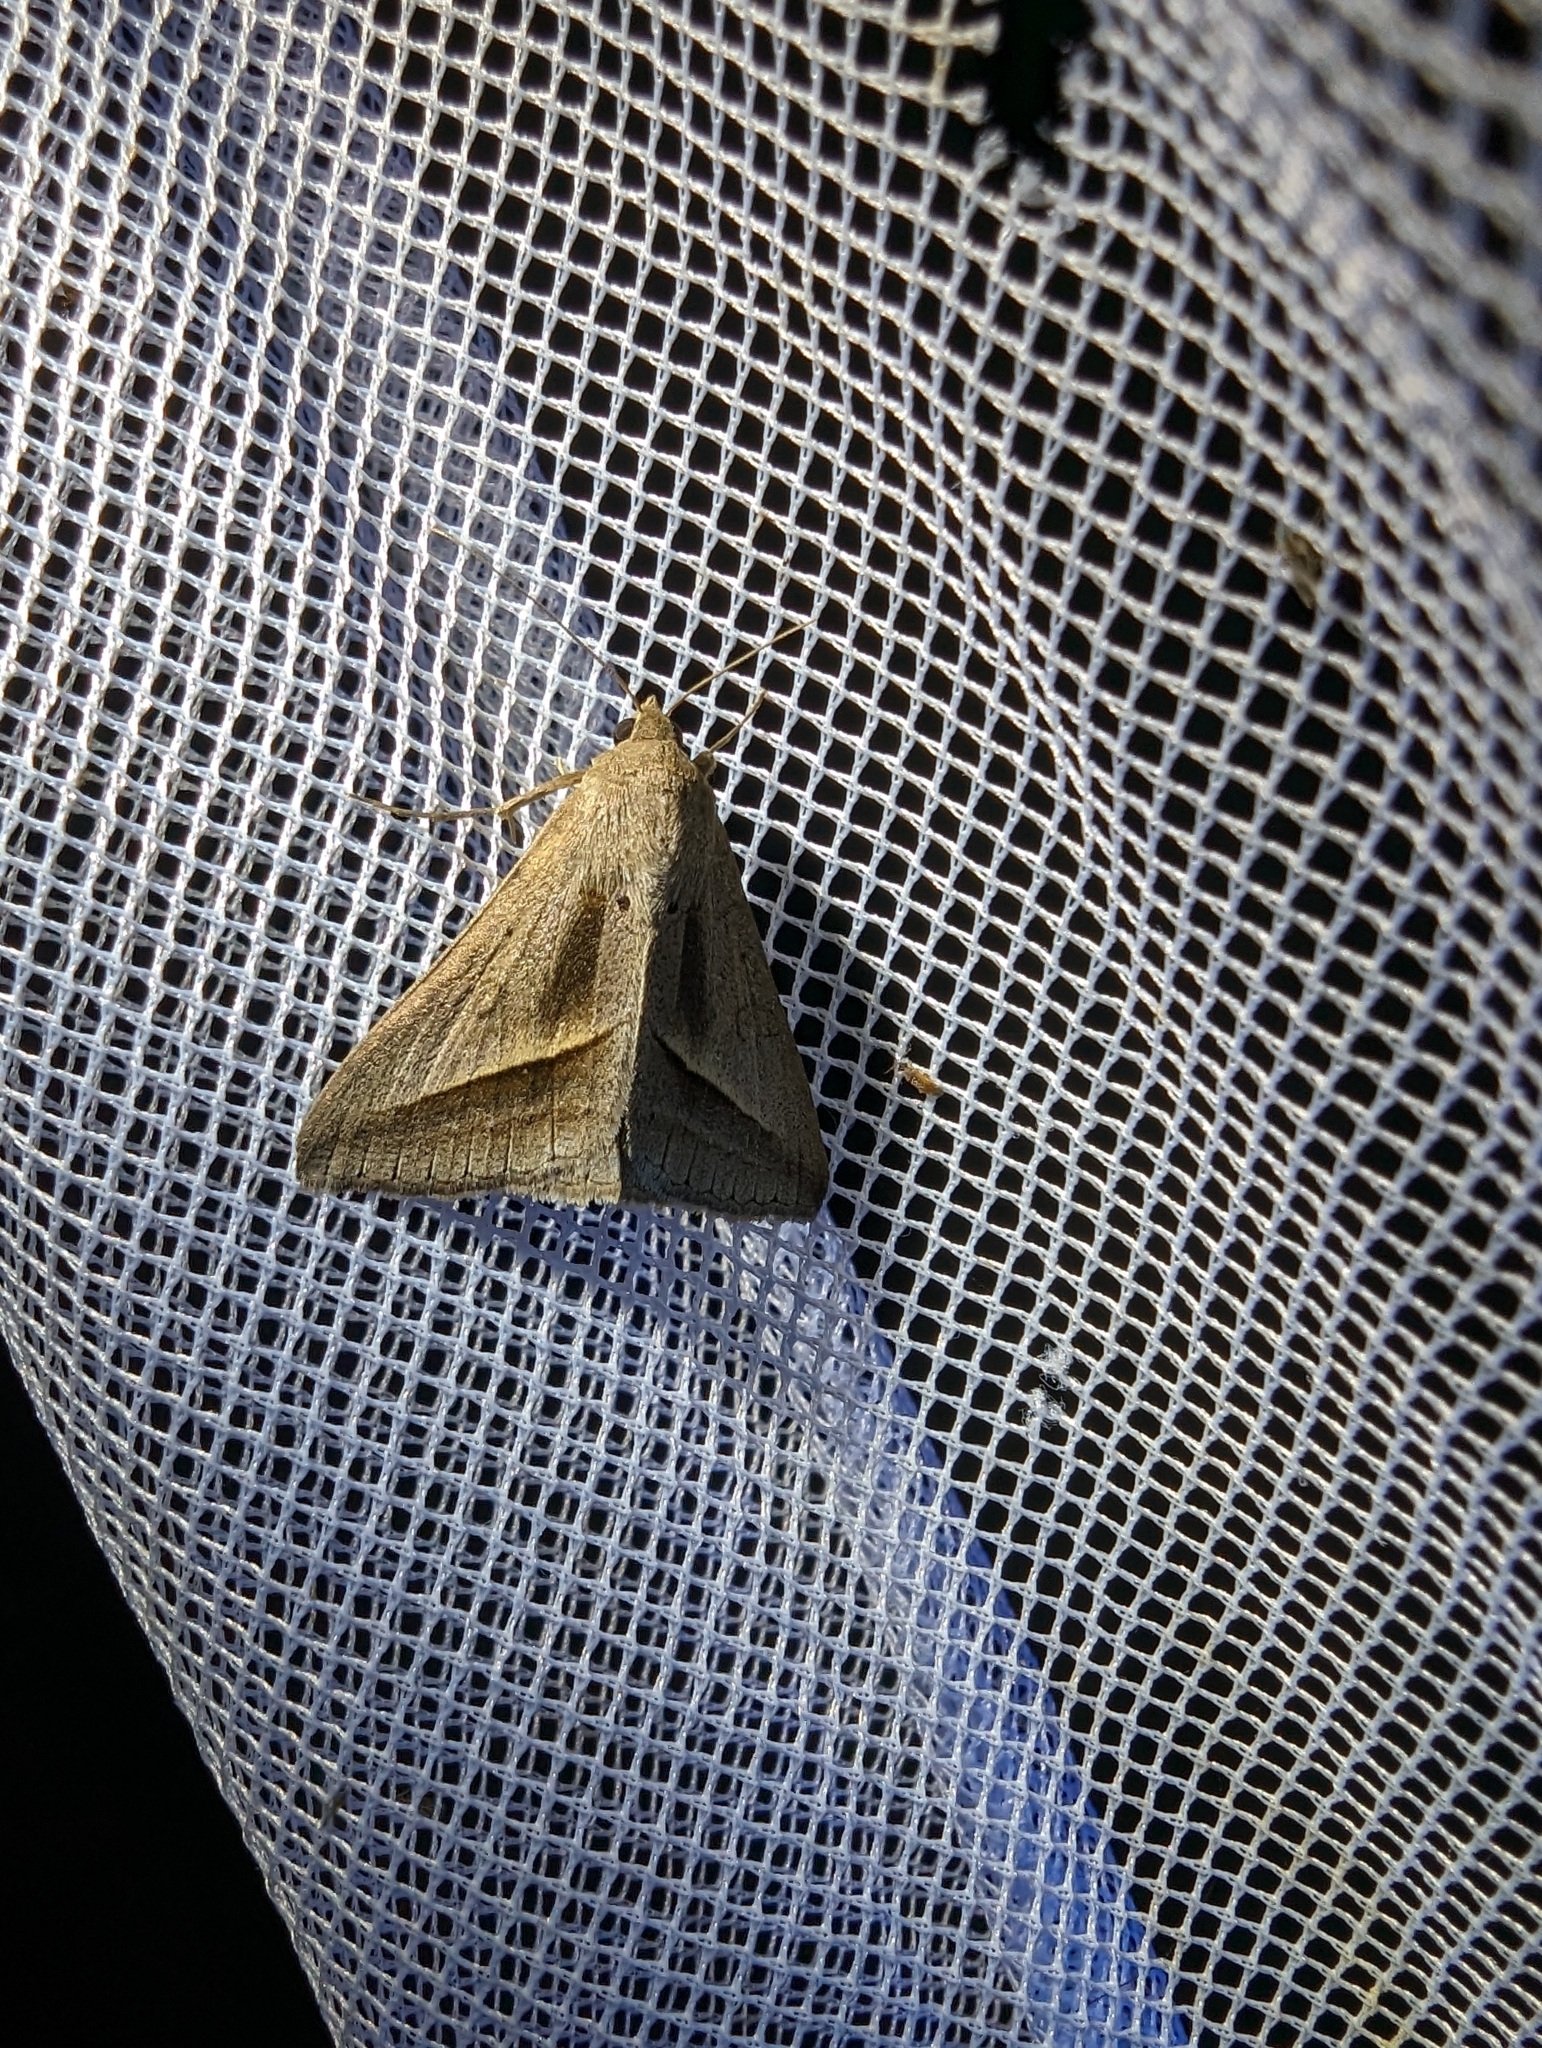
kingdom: Animalia
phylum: Arthropoda
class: Insecta
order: Lepidoptera
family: Erebidae
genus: Mocis
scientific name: Mocis frugalis
